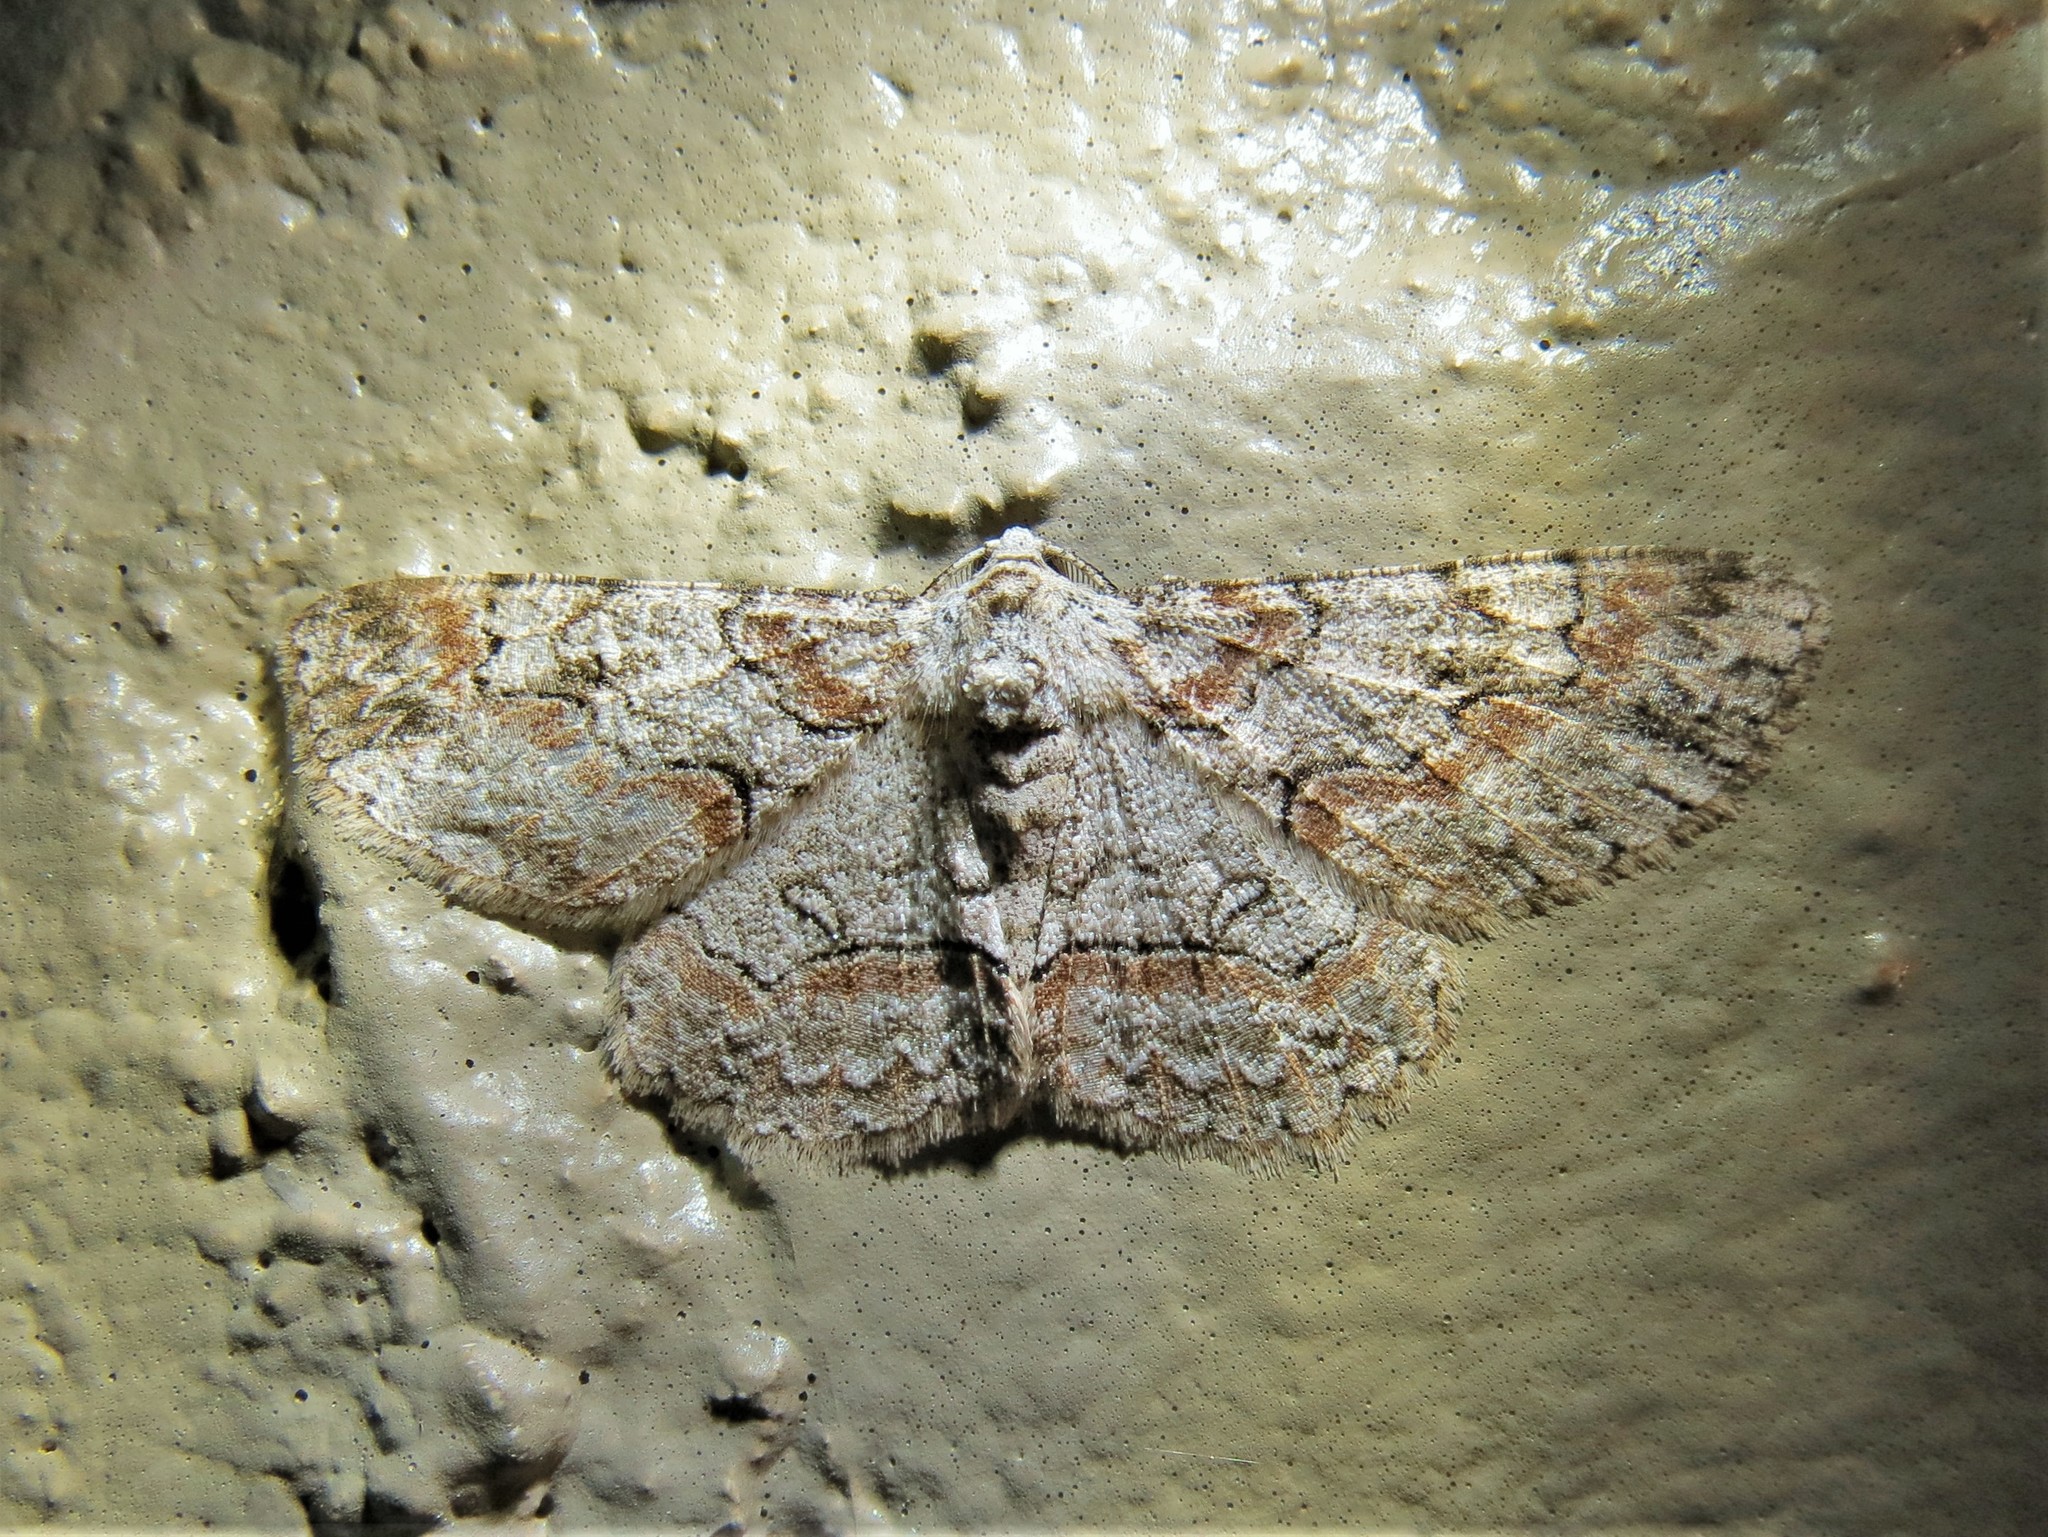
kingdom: Animalia
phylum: Arthropoda
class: Insecta
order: Lepidoptera
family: Geometridae
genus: Iridopsis
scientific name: Iridopsis defectaria
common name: Brown-shaded gray
